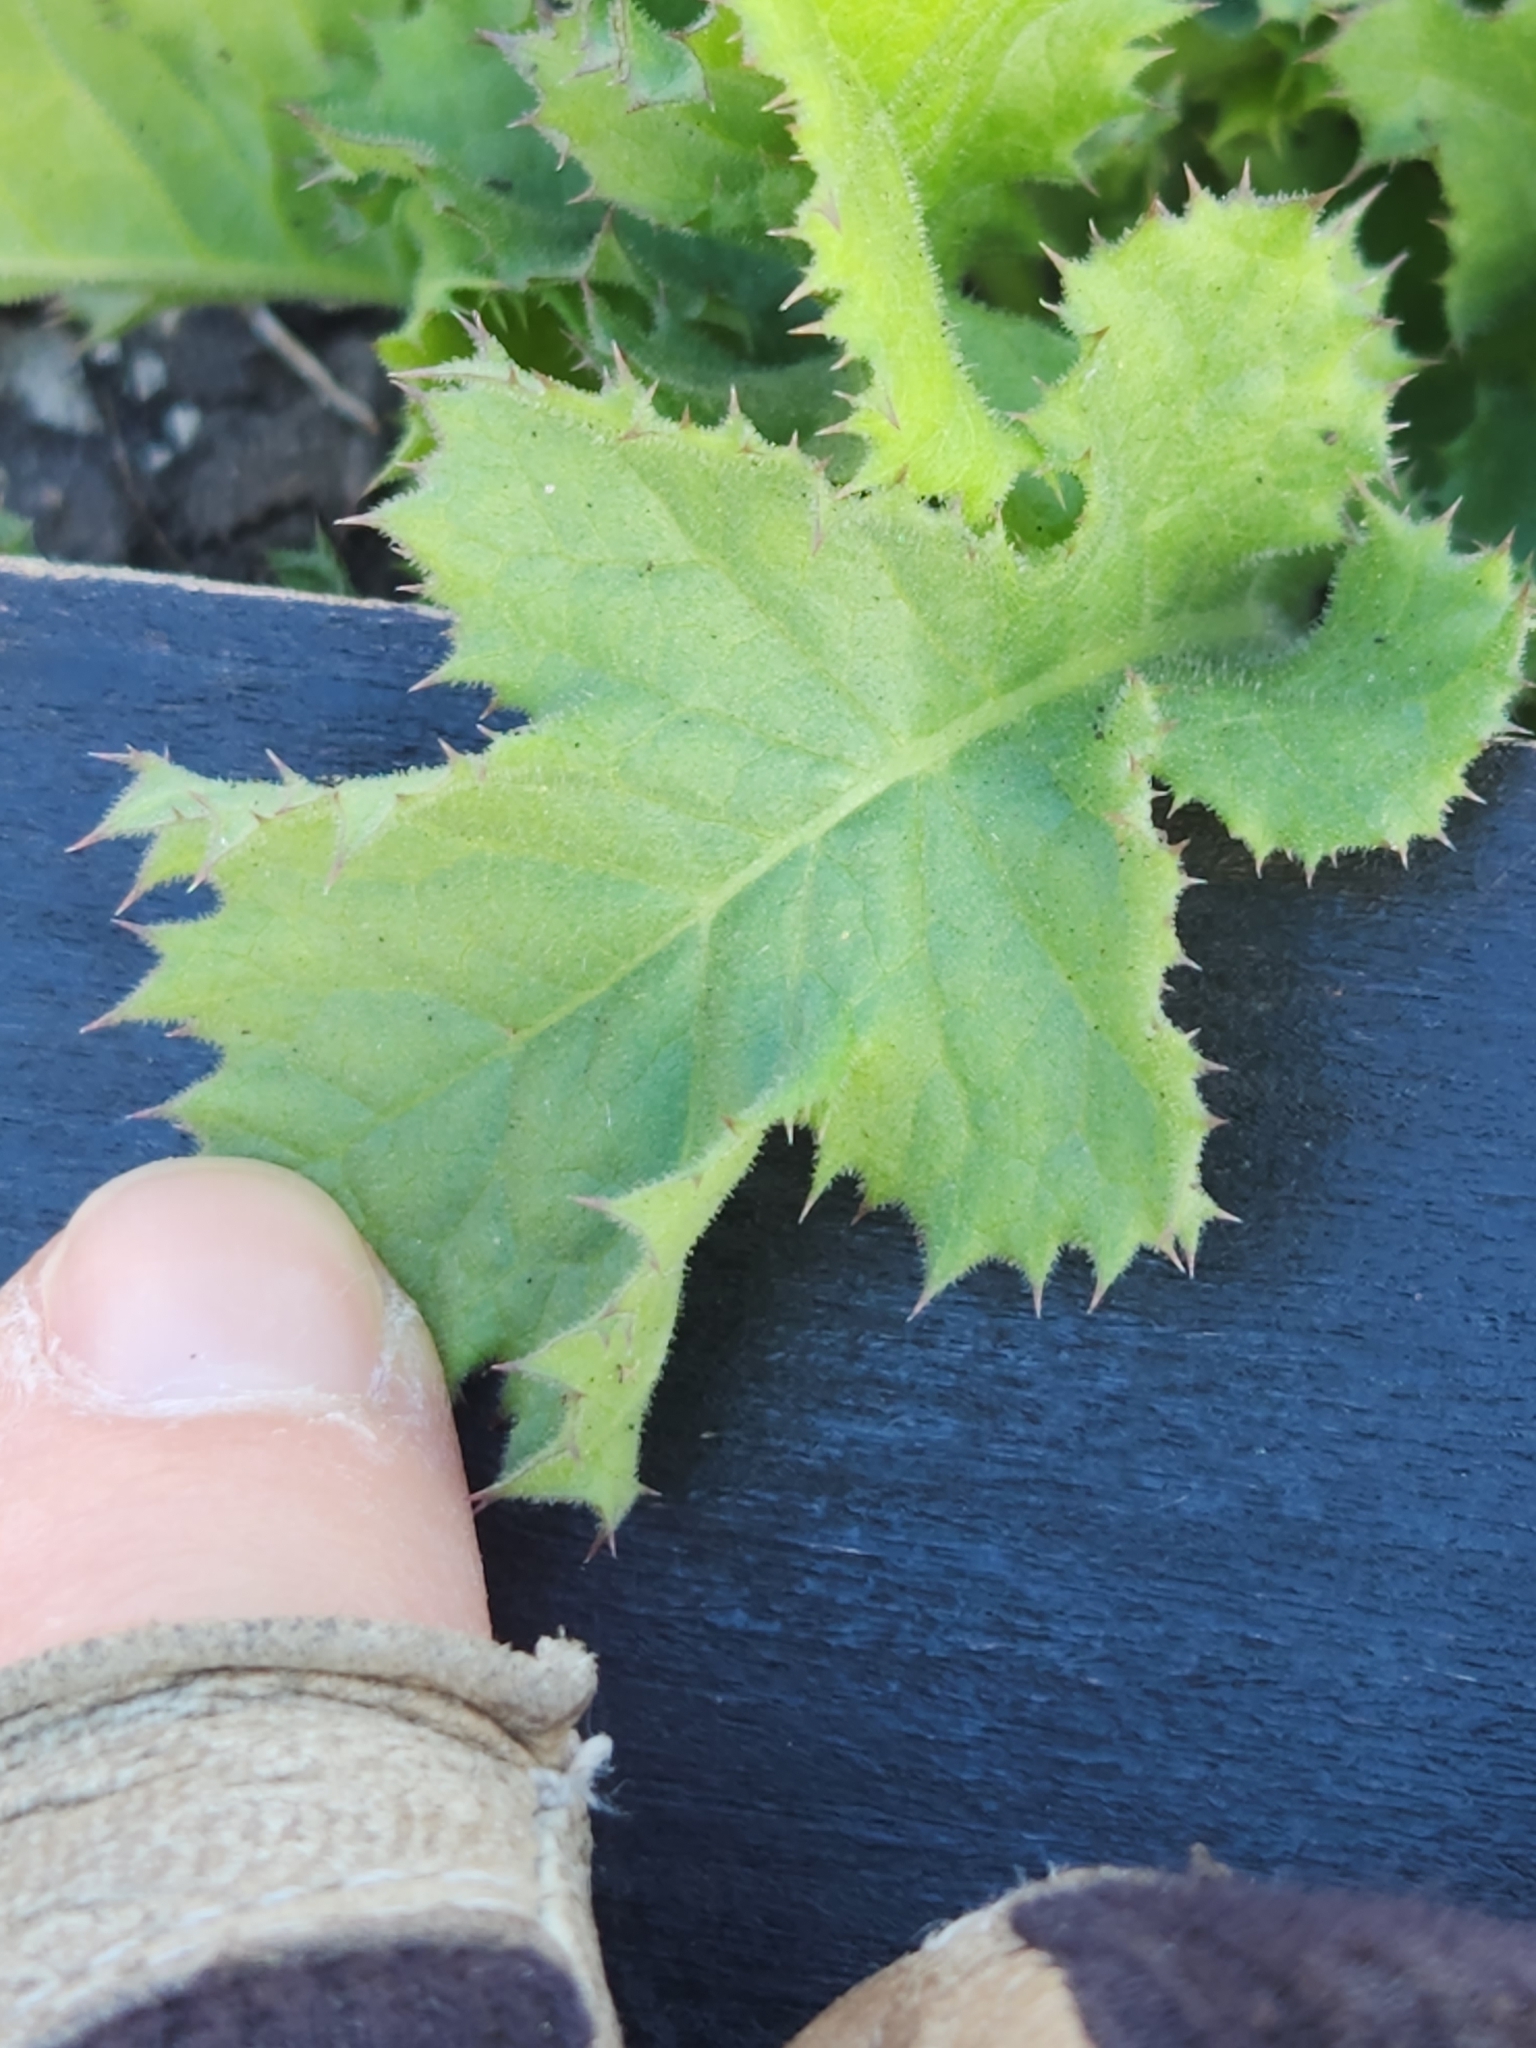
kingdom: Plantae
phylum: Tracheophyta
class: Magnoliopsida
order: Asterales
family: Asteraceae
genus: Acourtia
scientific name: Acourtia runcinata
